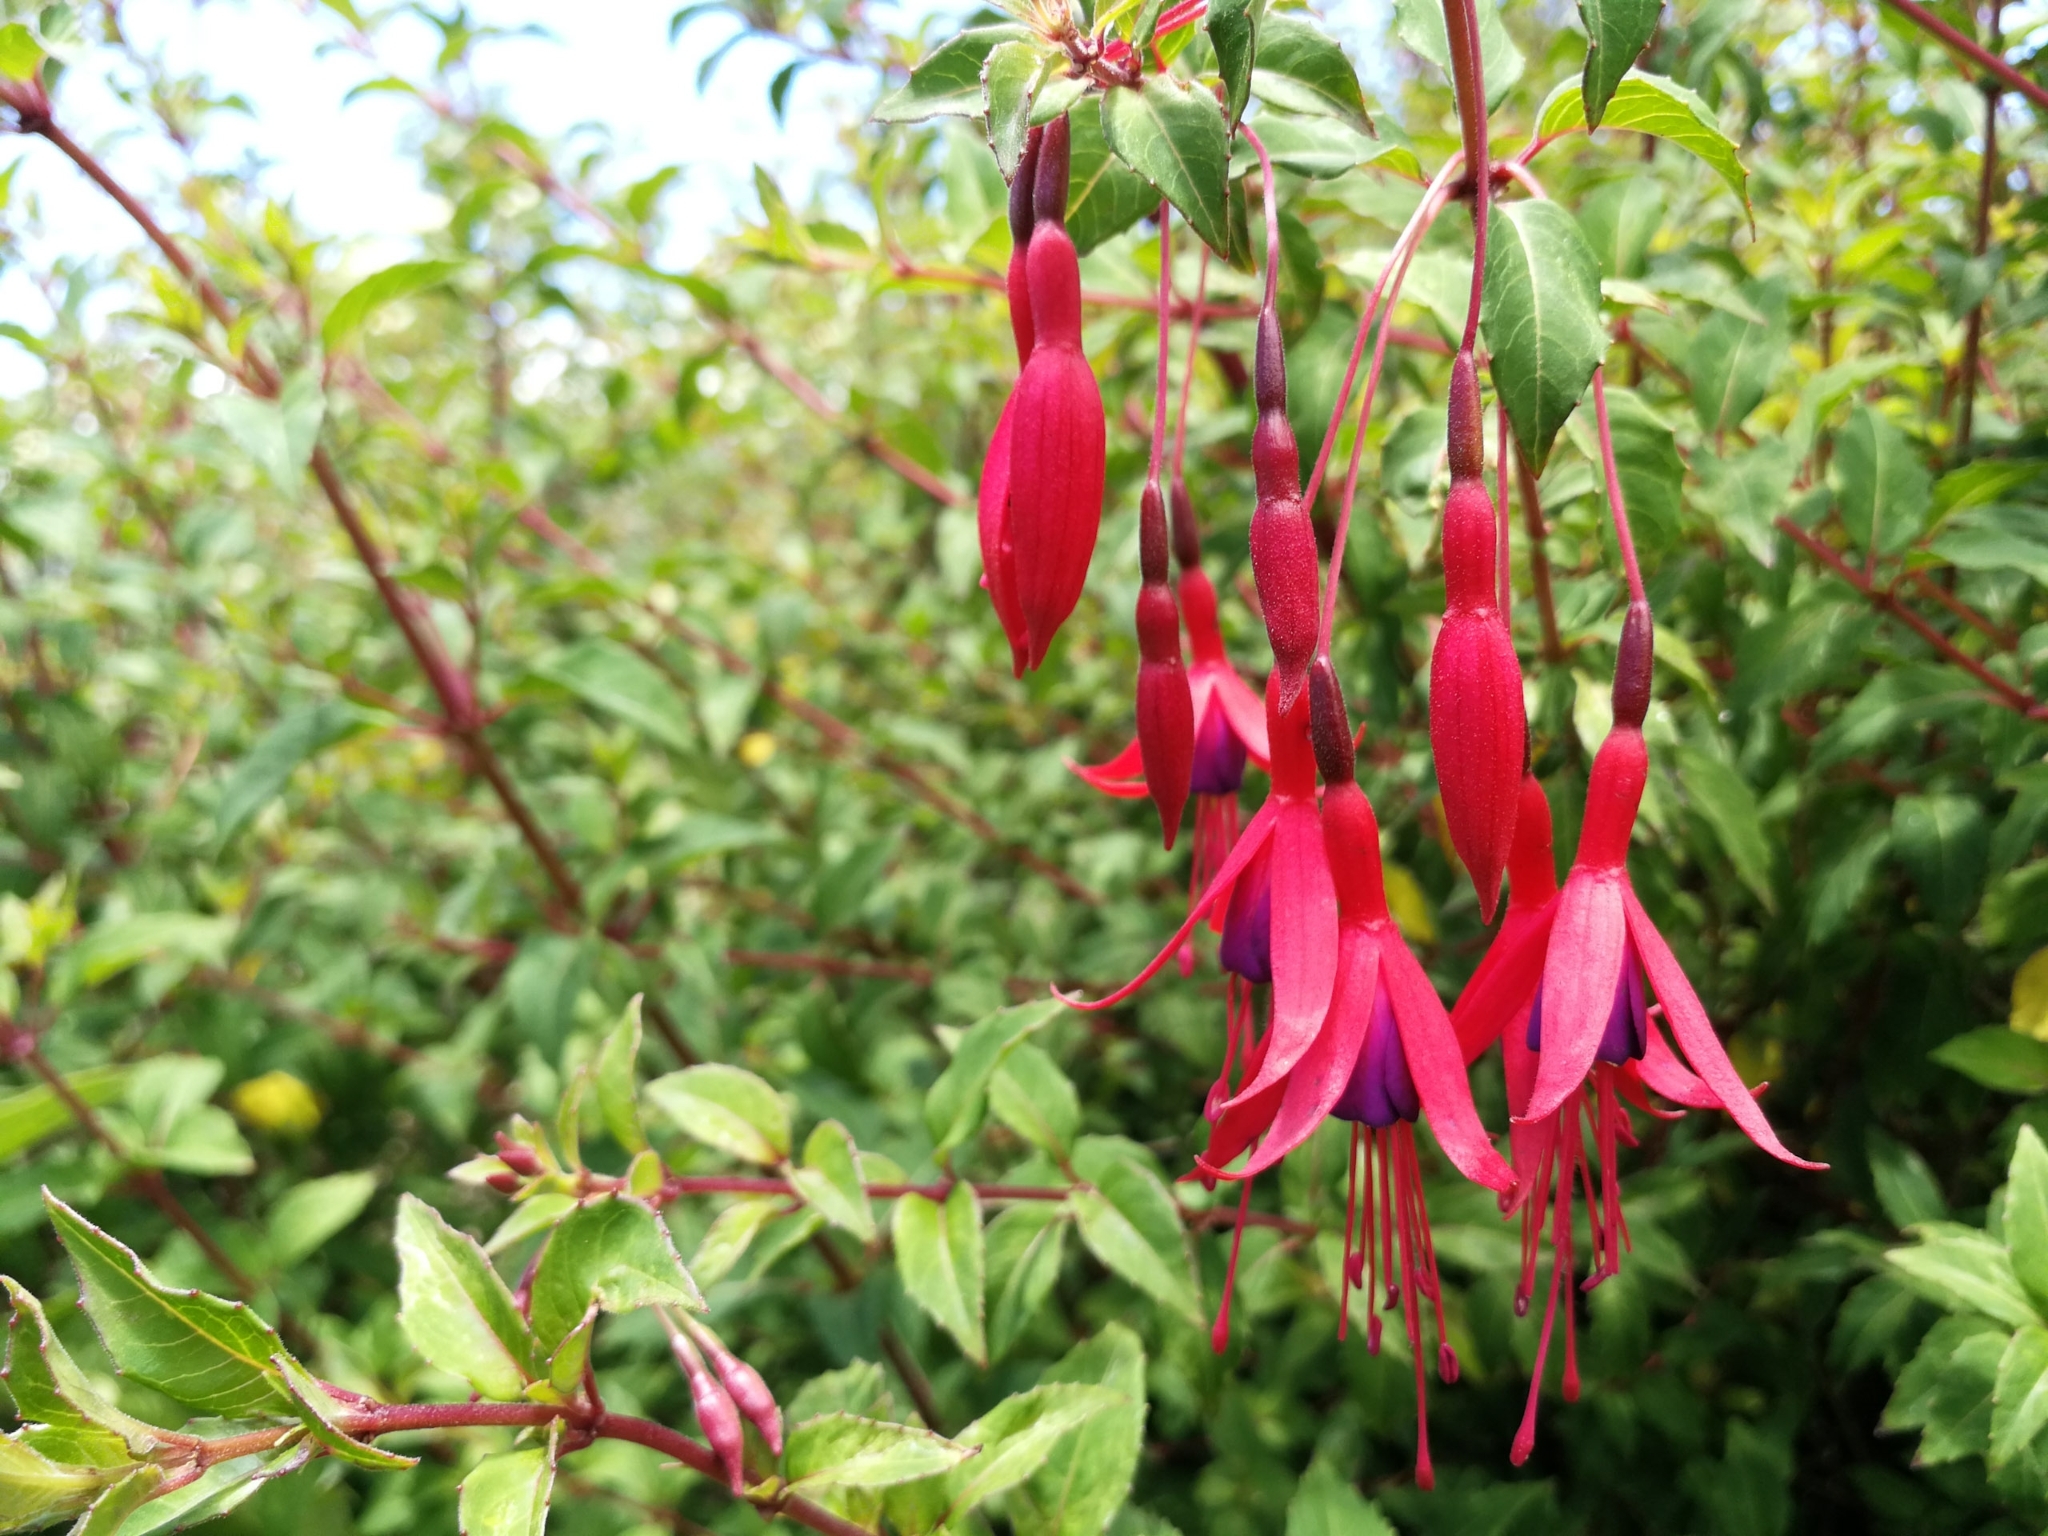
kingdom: Plantae
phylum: Tracheophyta
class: Magnoliopsida
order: Myrtales
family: Onagraceae
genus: Fuchsia
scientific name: Fuchsia magellanica
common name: Hardy fuchsia
